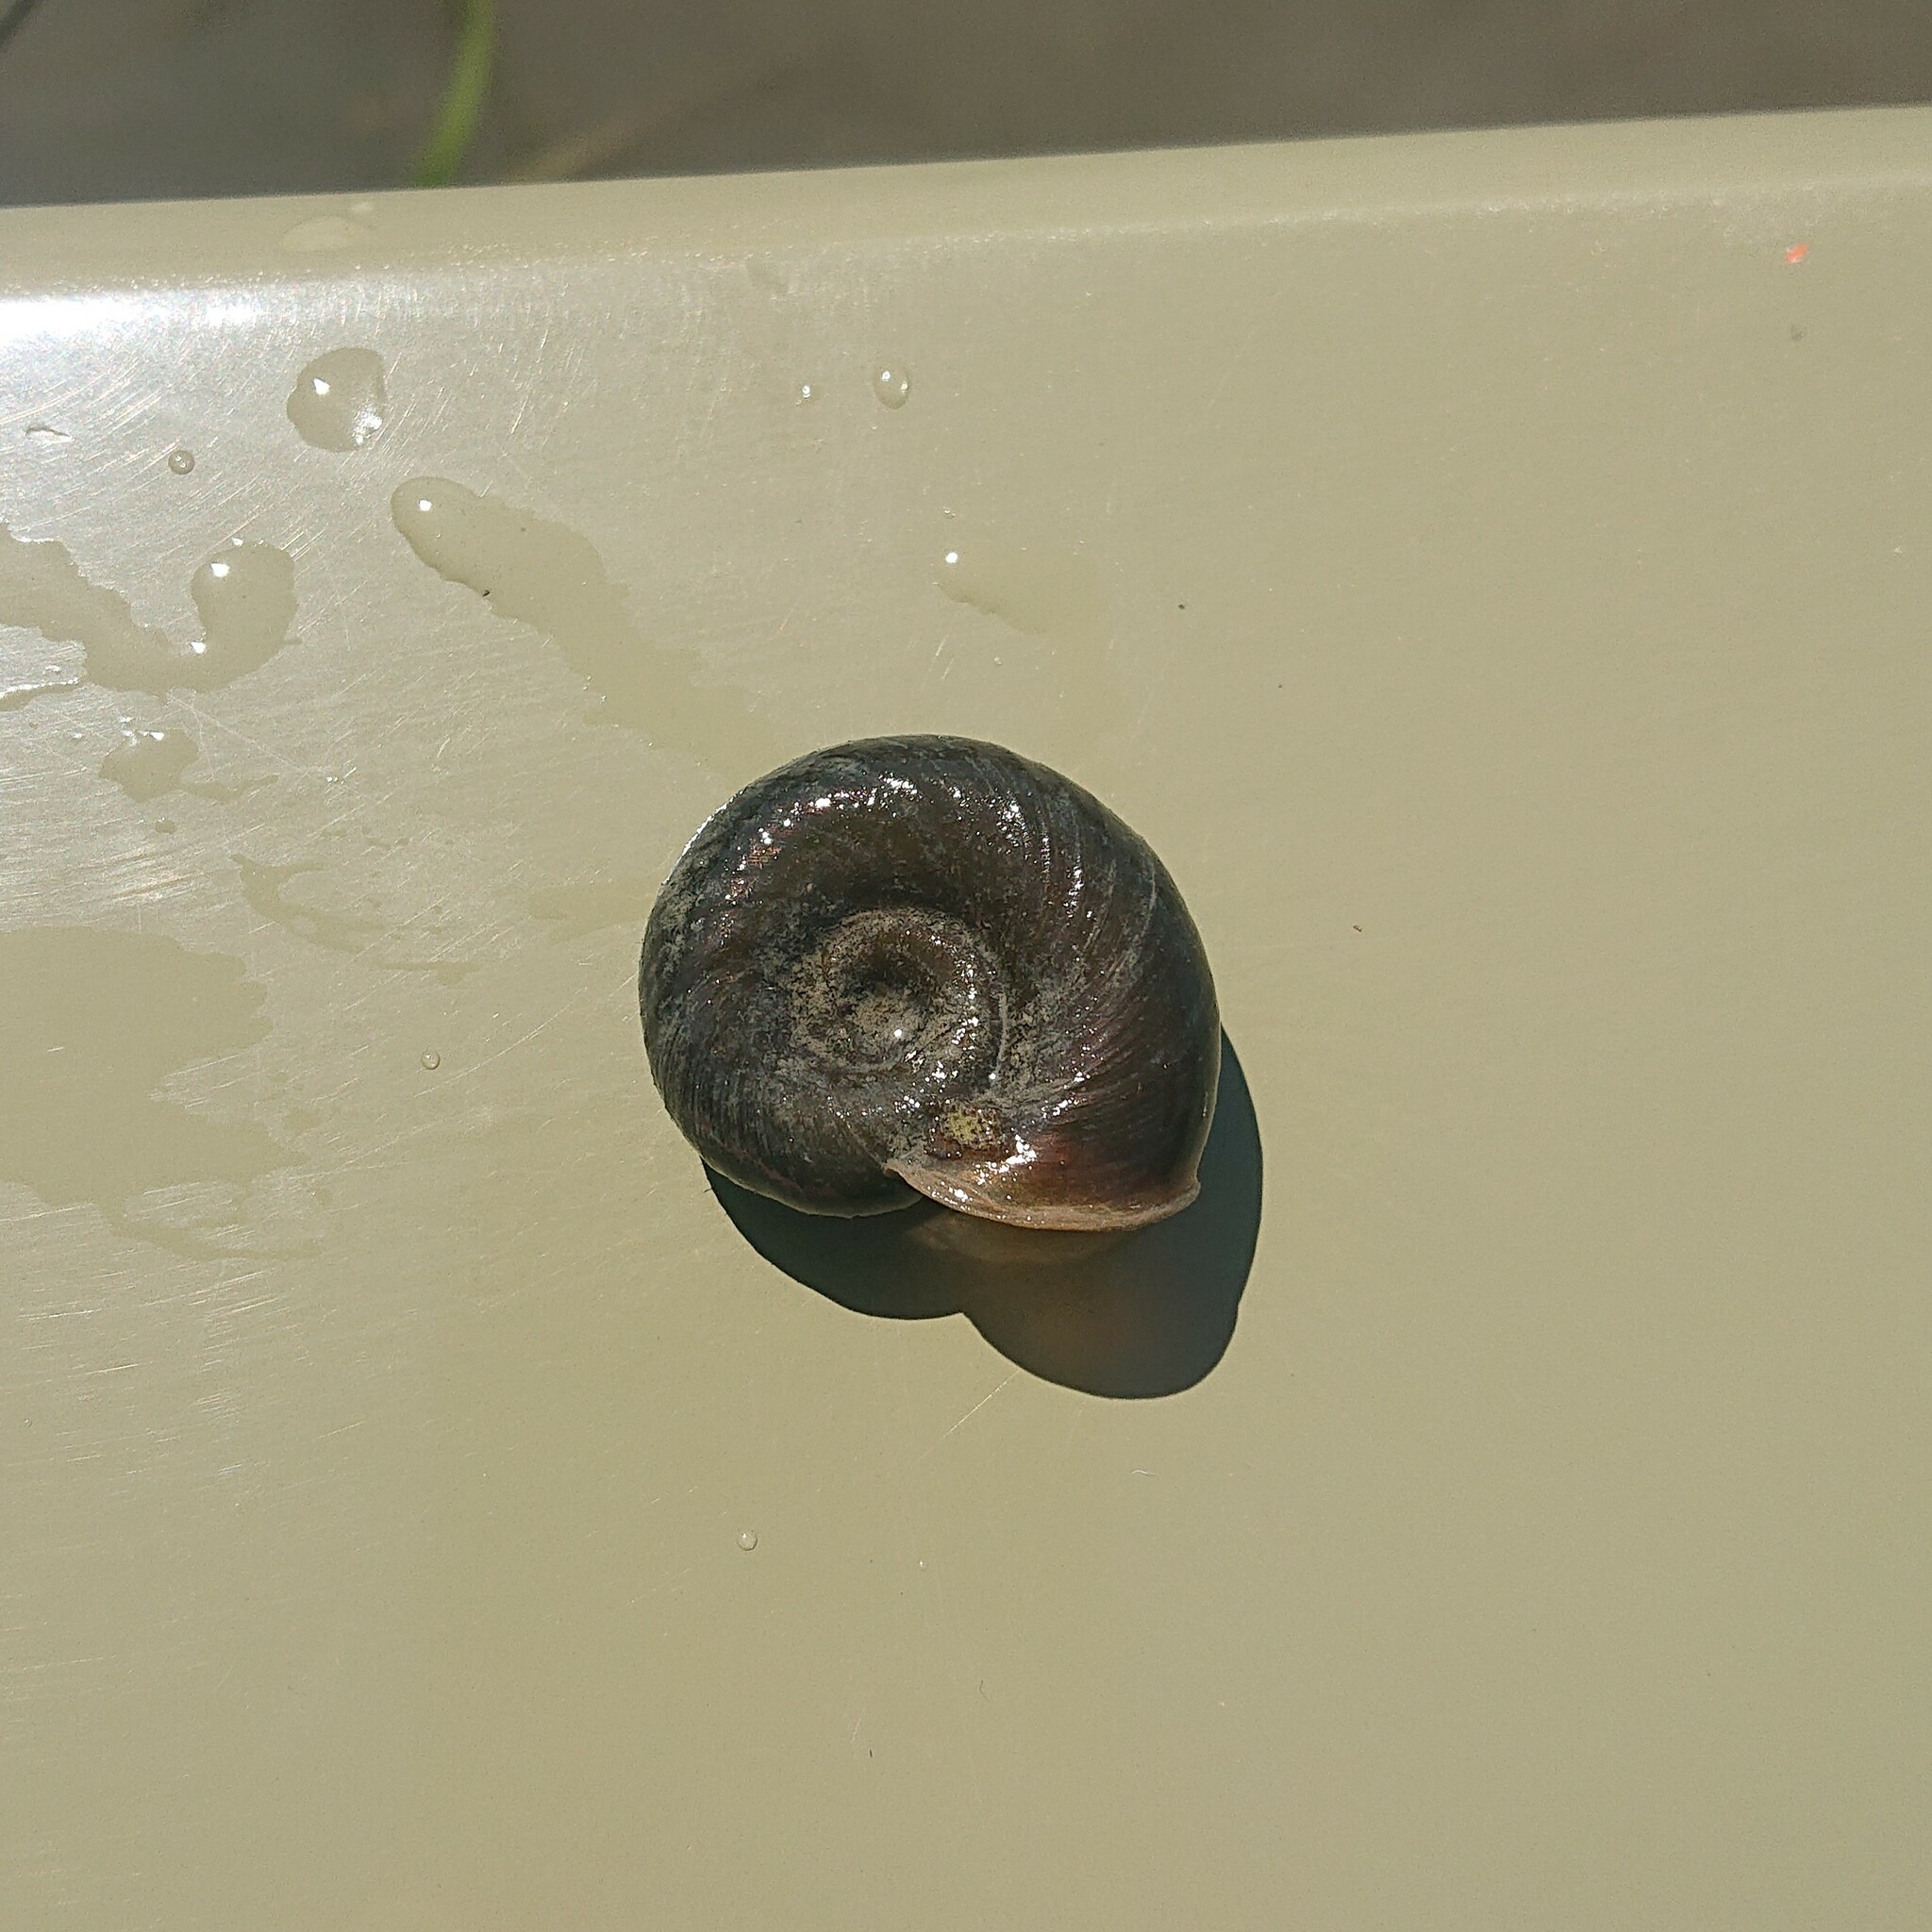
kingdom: Animalia
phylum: Mollusca
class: Gastropoda
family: Planorbidae
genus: Planorbarius
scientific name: Planorbarius corneus
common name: Great ramshorn
